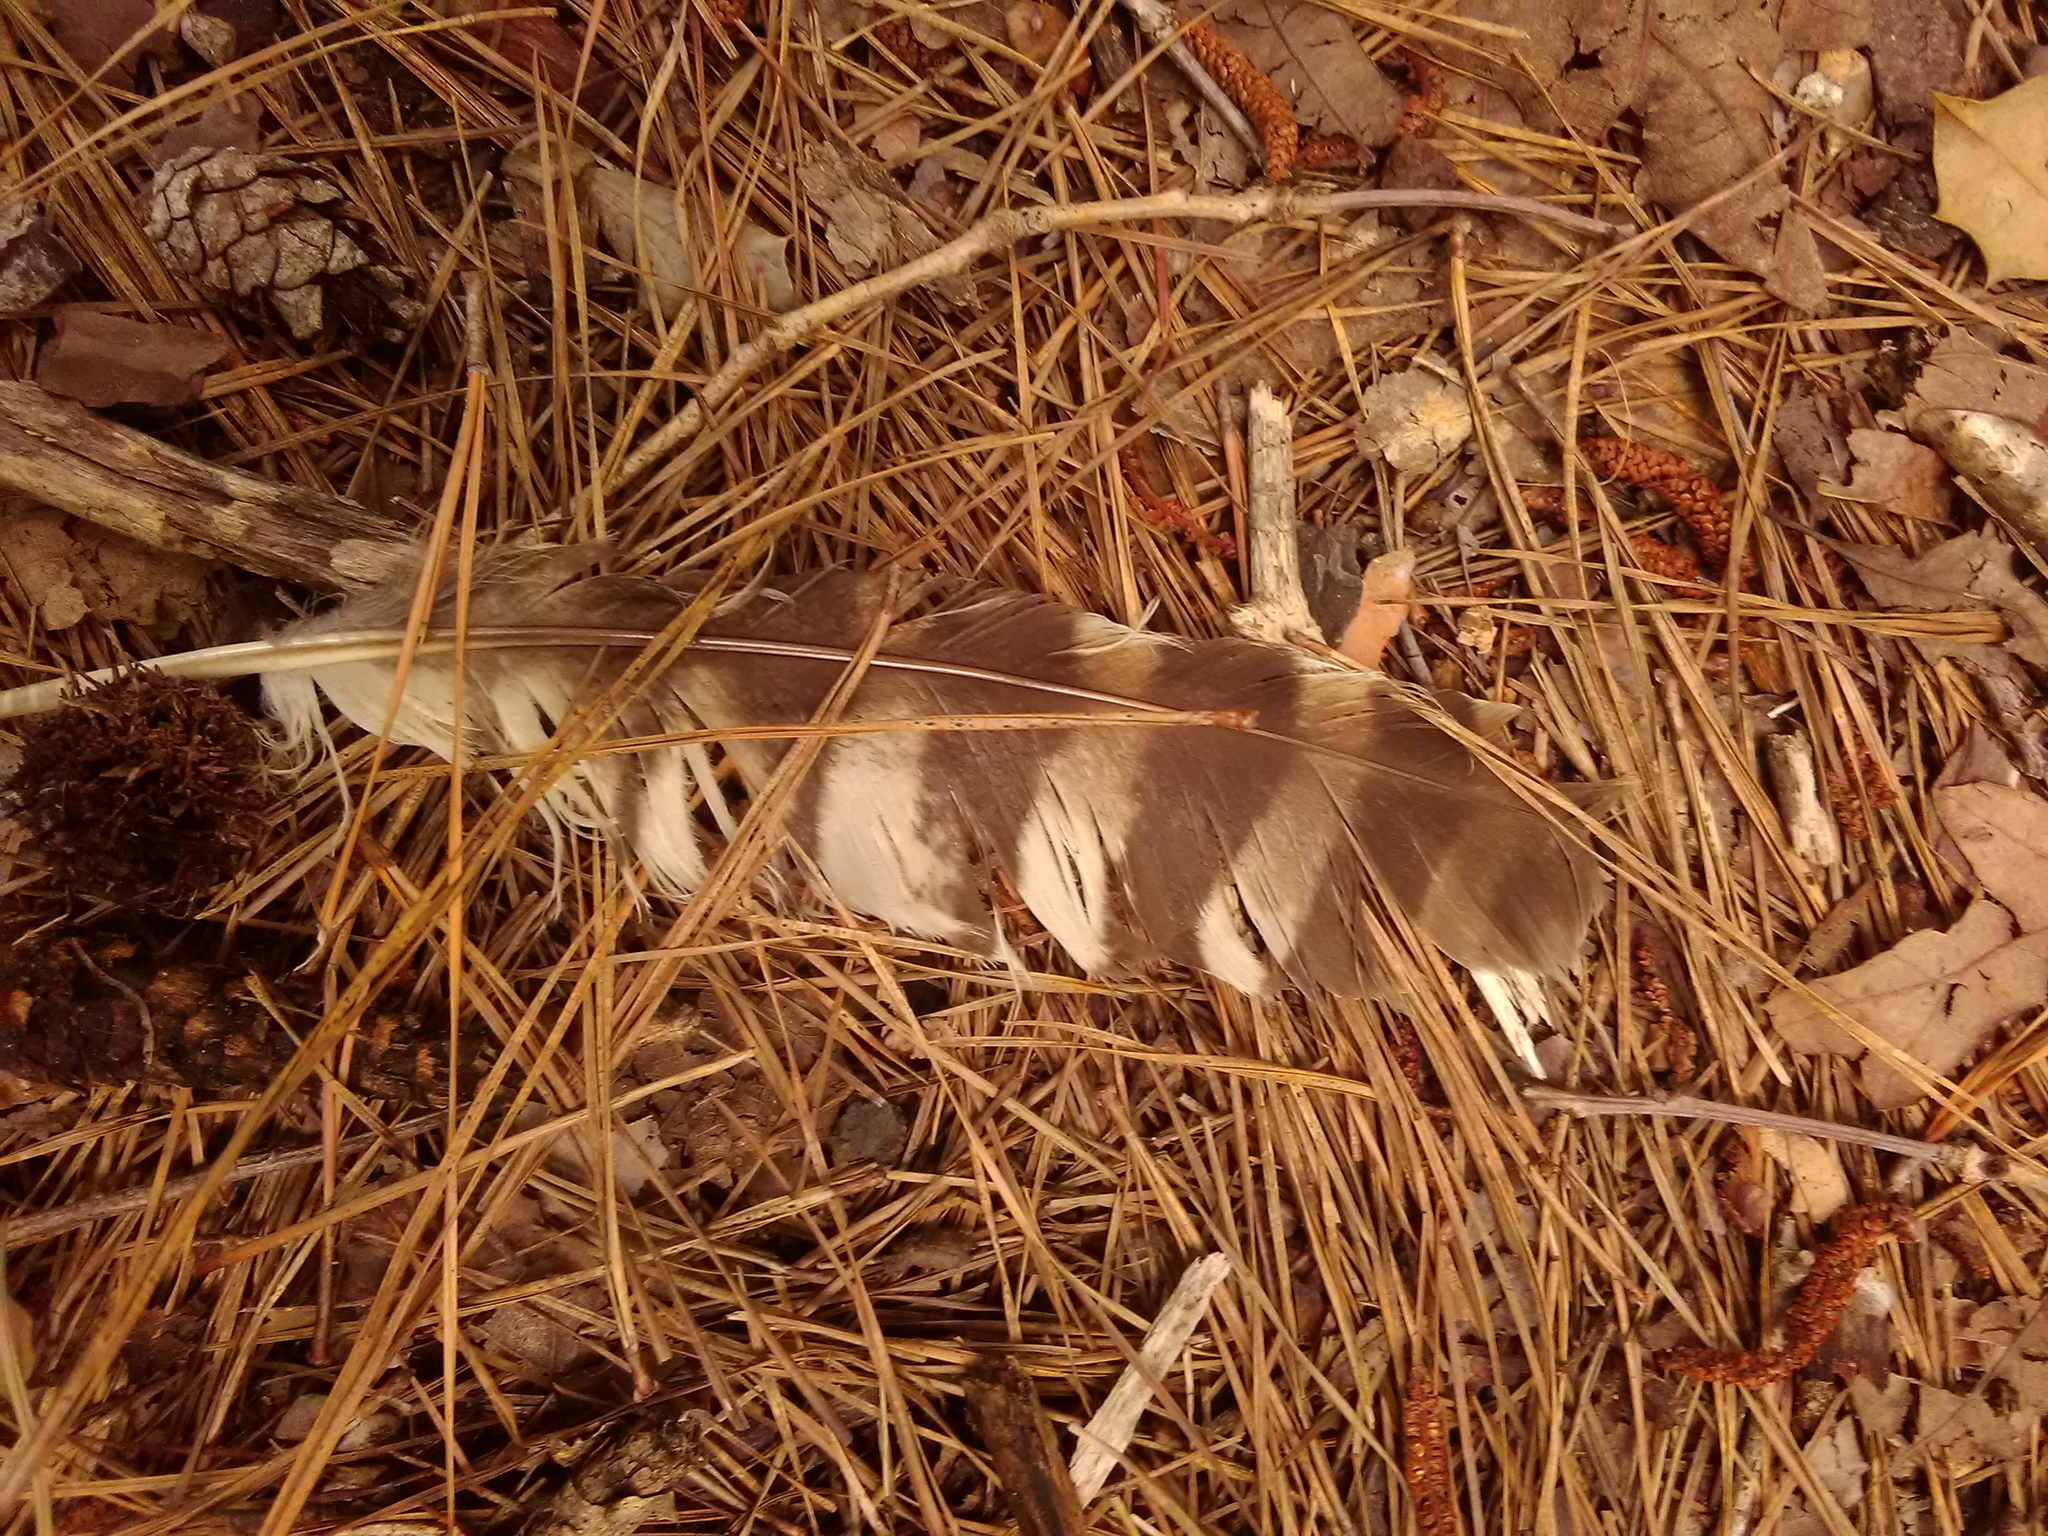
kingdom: Animalia
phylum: Chordata
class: Aves
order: Strigiformes
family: Strigidae
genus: Strix
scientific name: Strix varia
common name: Barred owl
